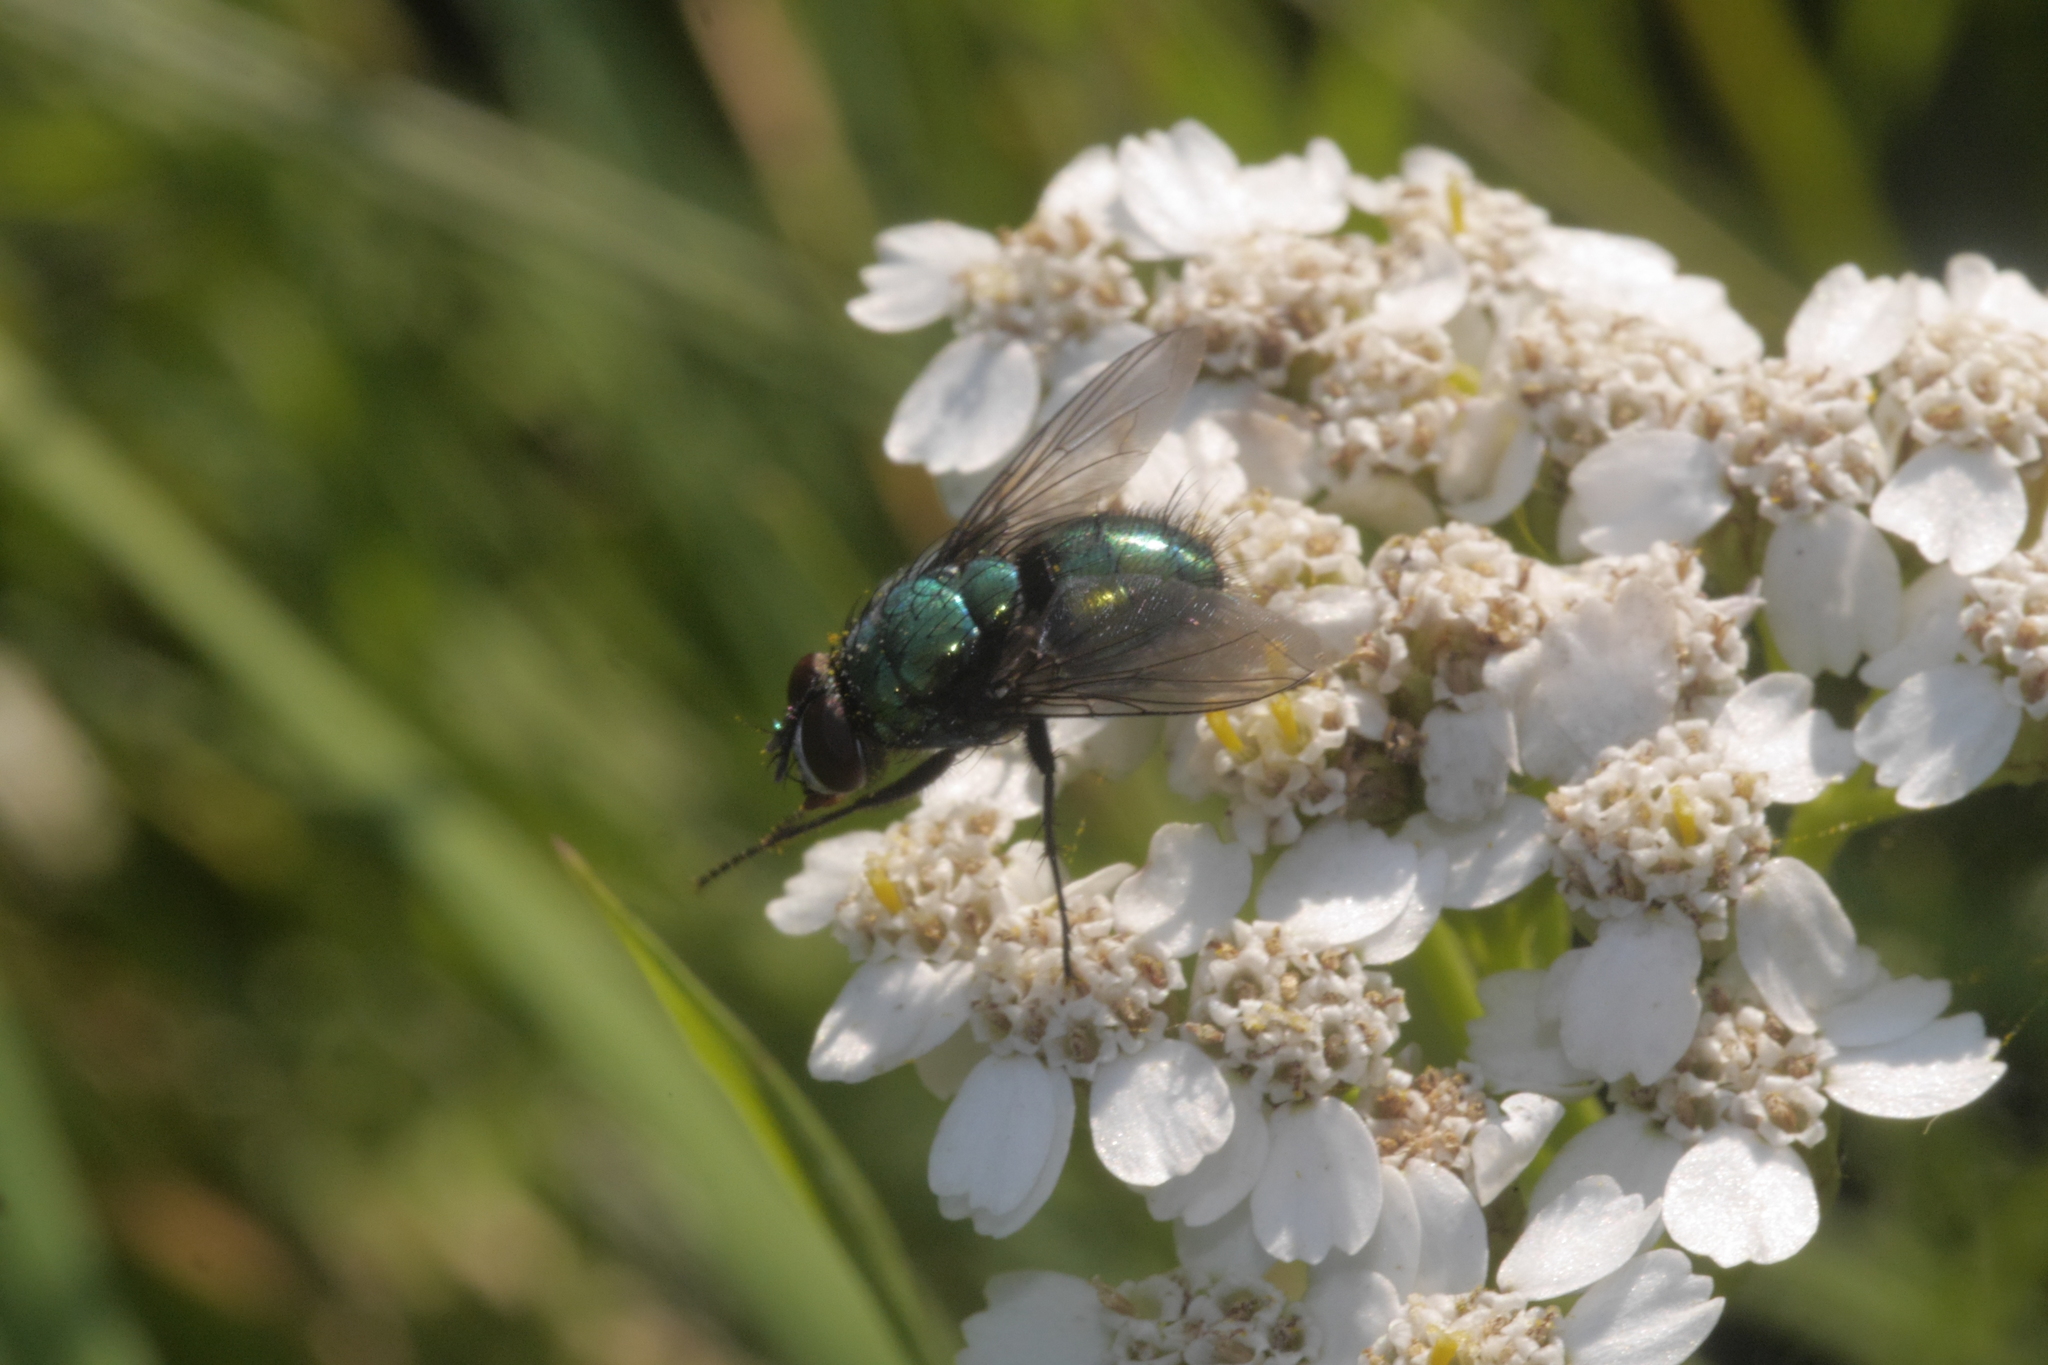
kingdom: Animalia
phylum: Arthropoda
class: Insecta
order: Diptera
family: Tachinidae
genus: Gymnocheta
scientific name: Gymnocheta viridis
